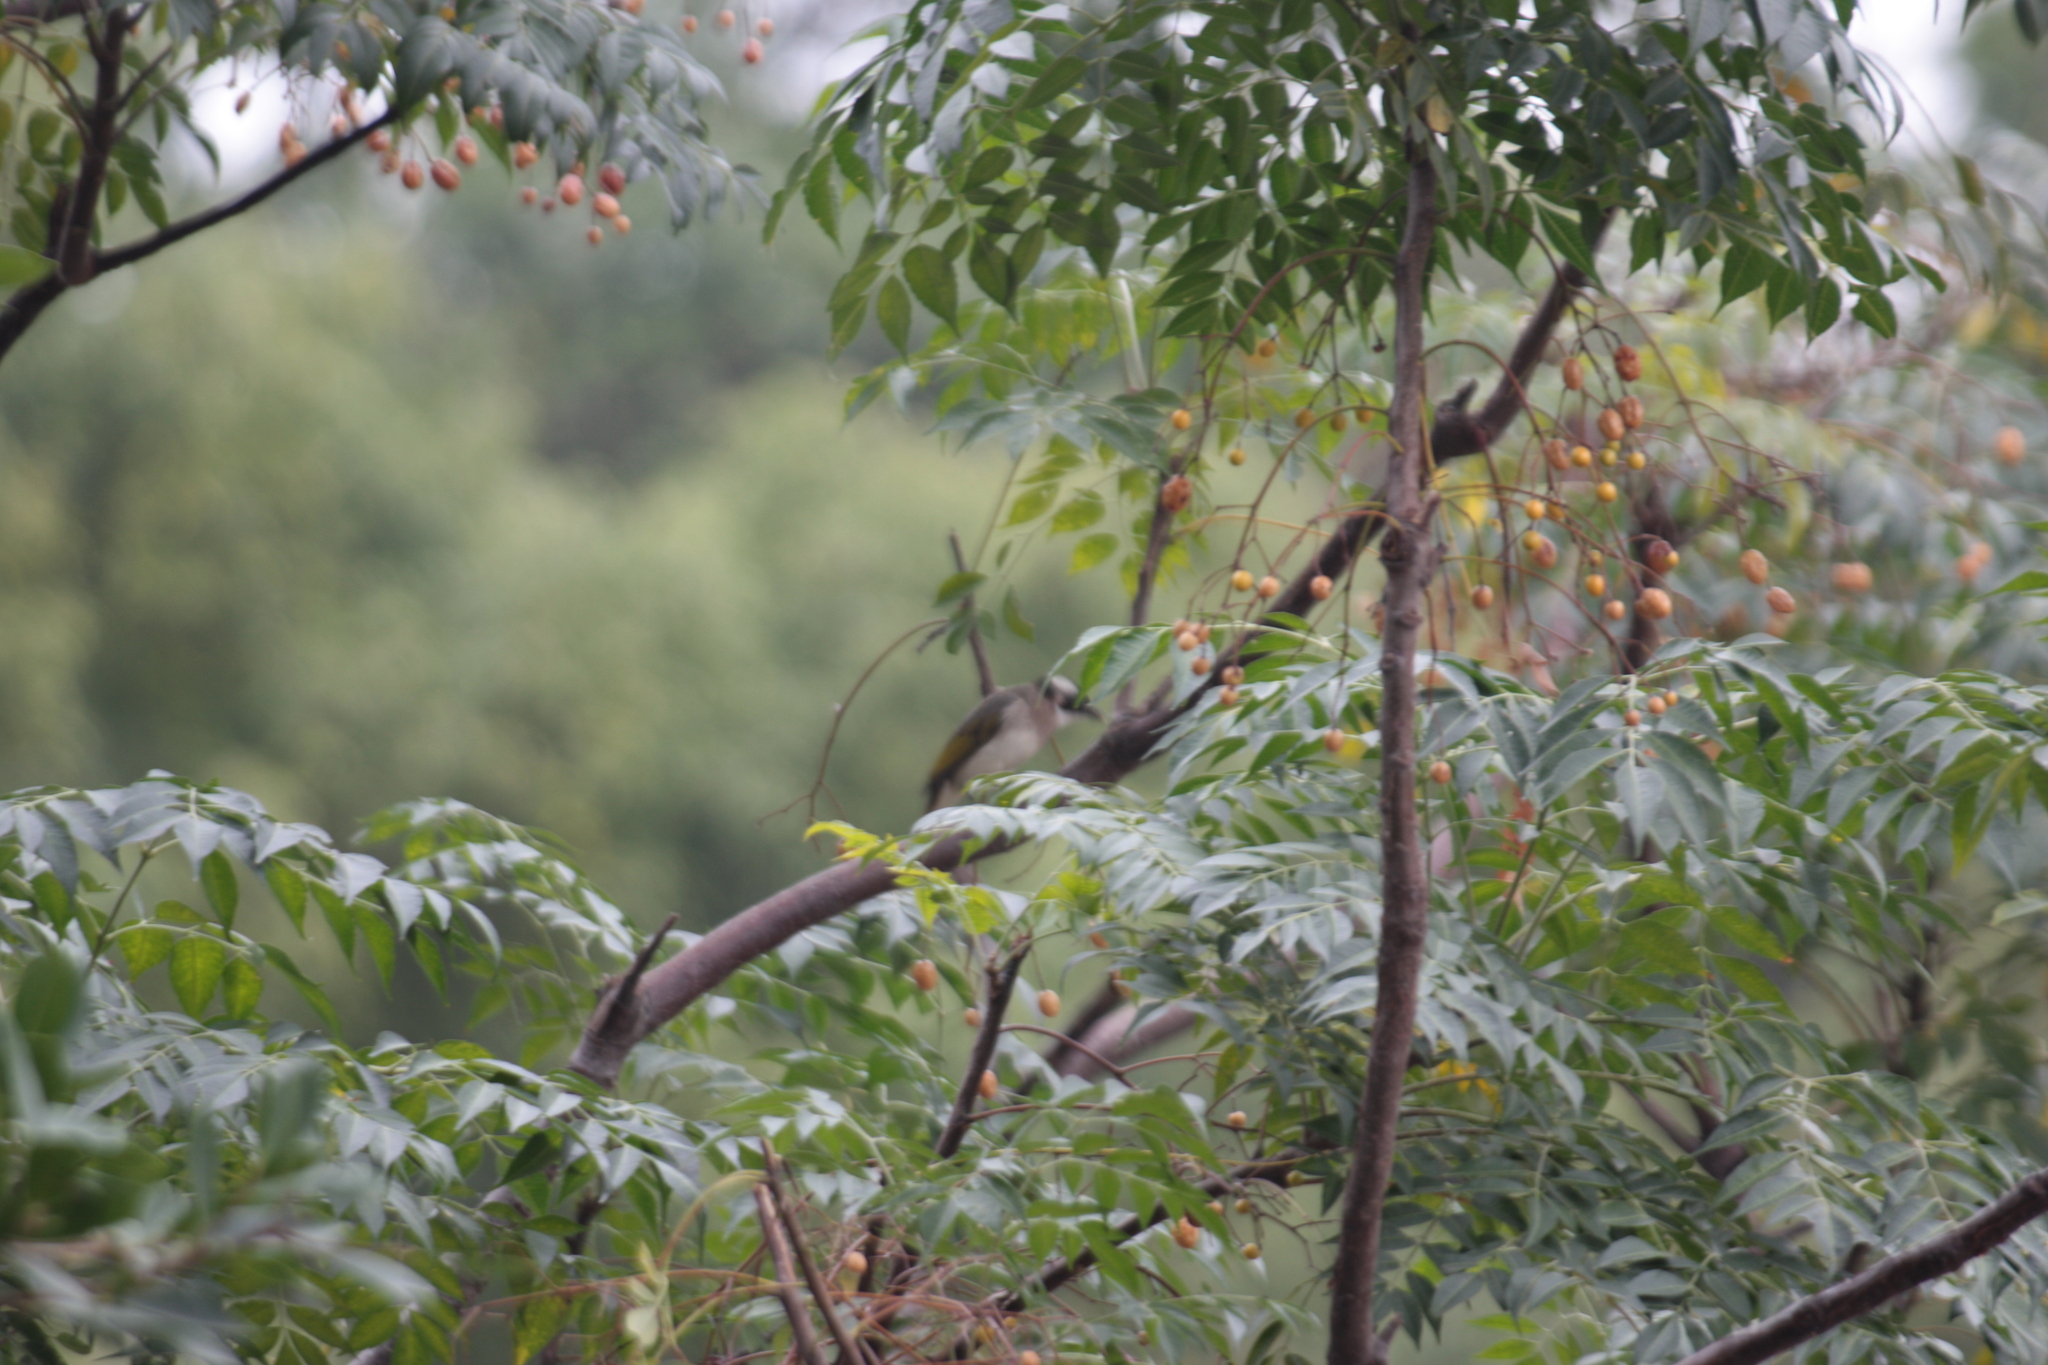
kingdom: Animalia
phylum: Chordata
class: Aves
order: Passeriformes
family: Pycnonotidae
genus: Pycnonotus
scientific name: Pycnonotus sinensis
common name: Light-vented bulbul
